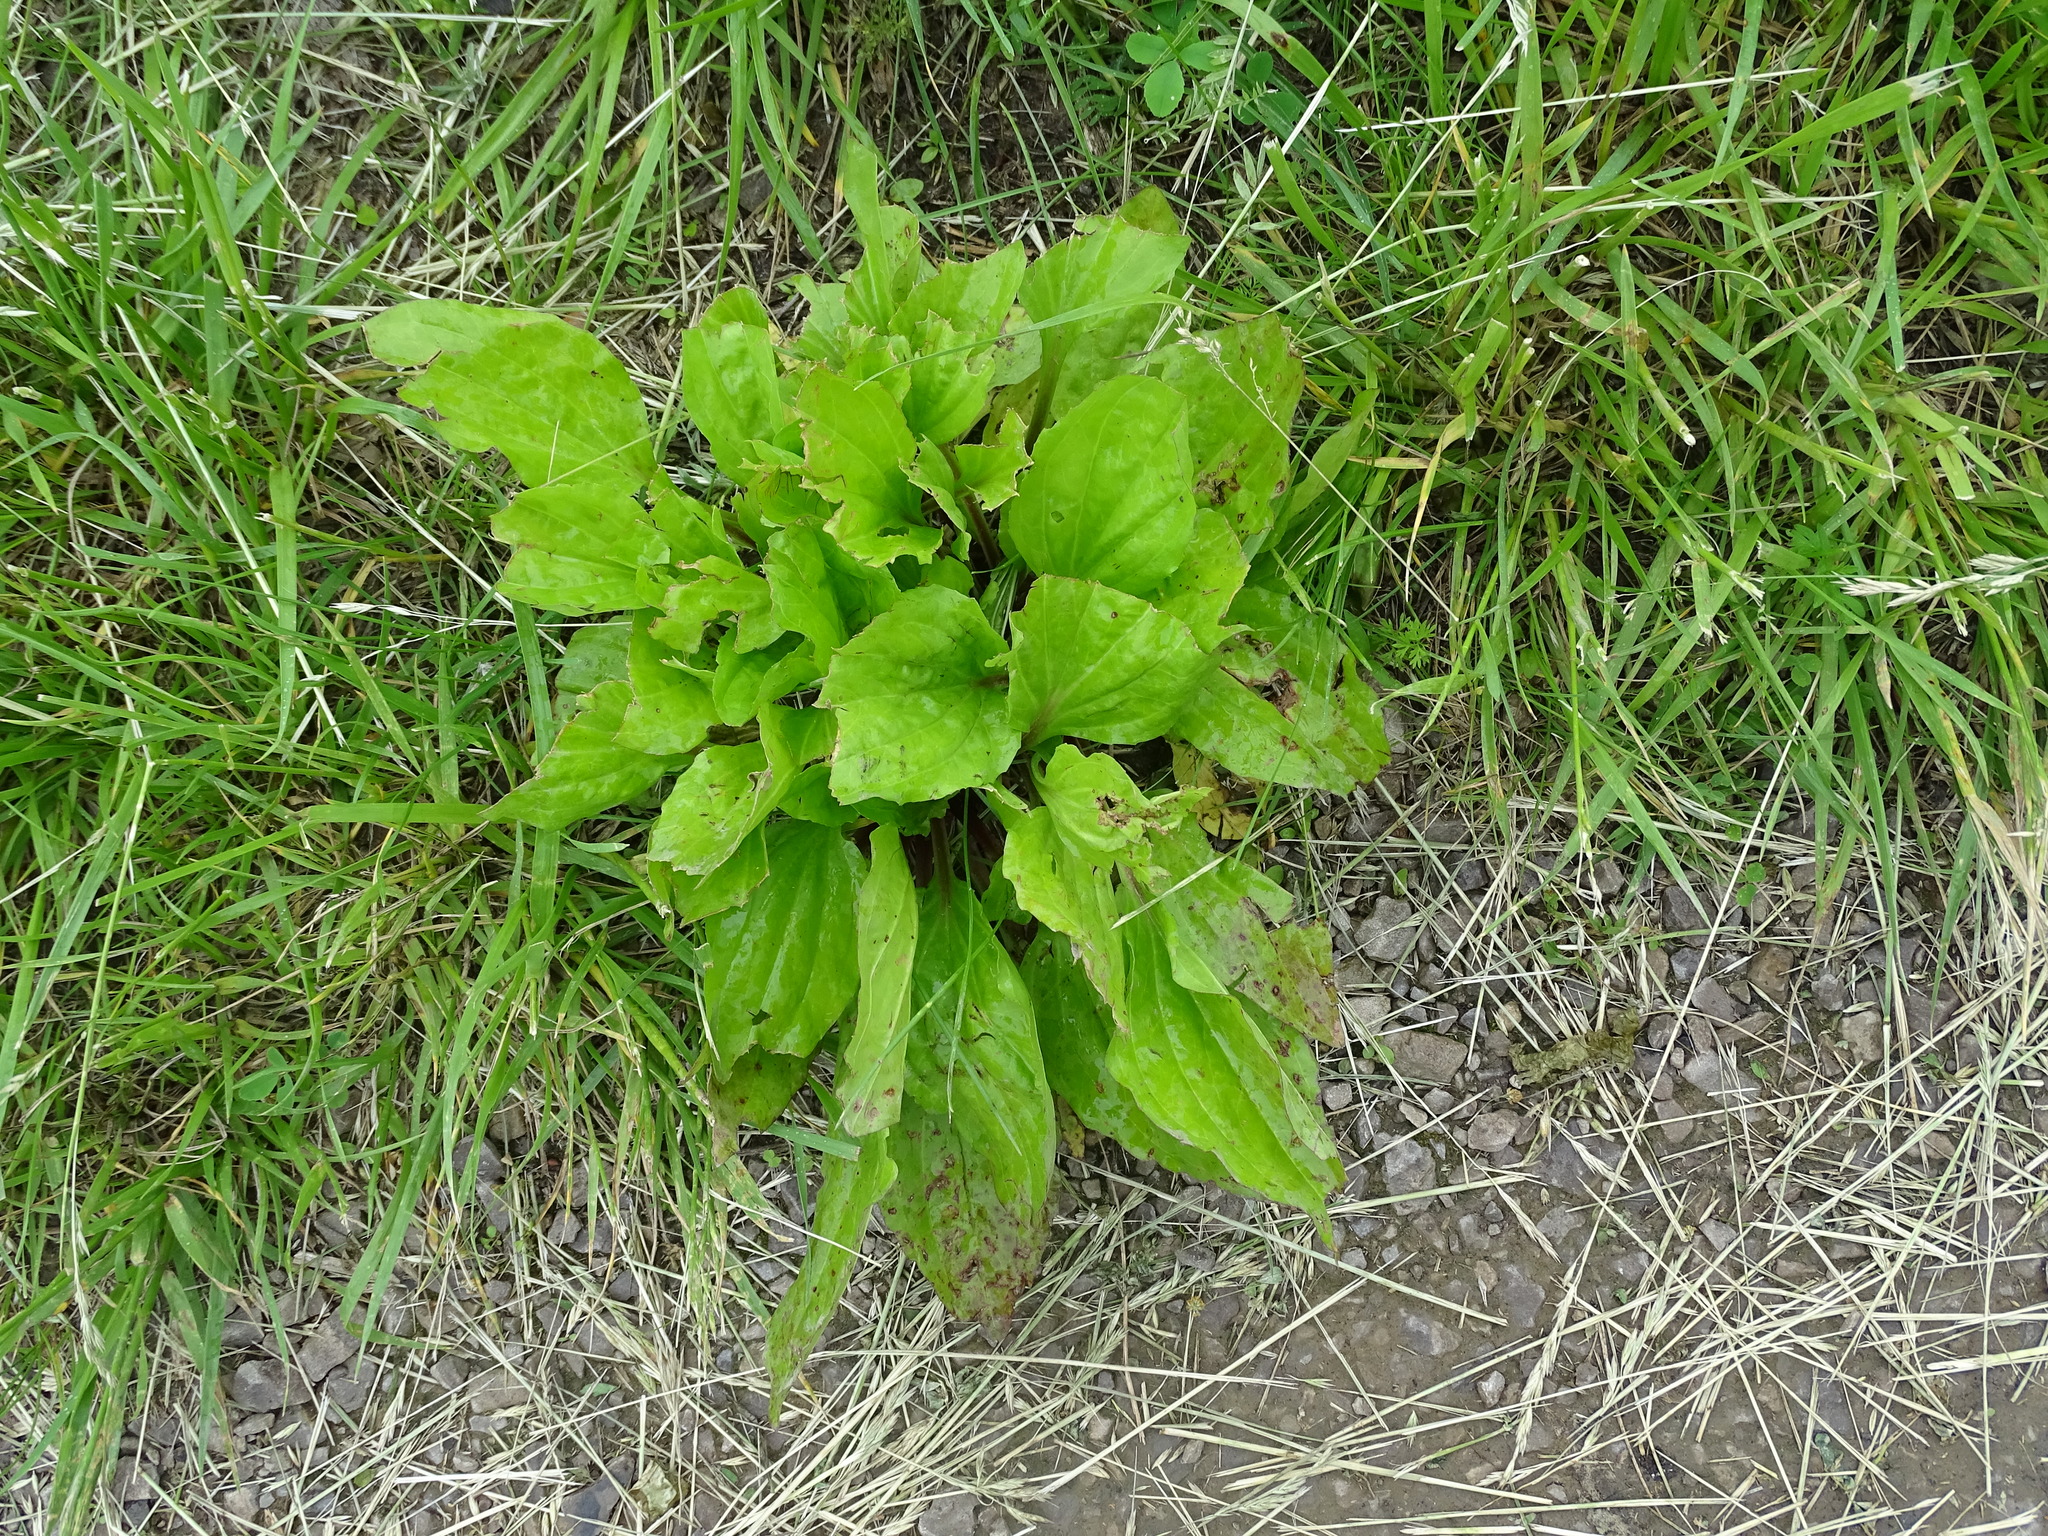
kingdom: Plantae
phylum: Tracheophyta
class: Magnoliopsida
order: Lamiales
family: Plantaginaceae
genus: Plantago
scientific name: Plantago rugelii
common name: American plantain
